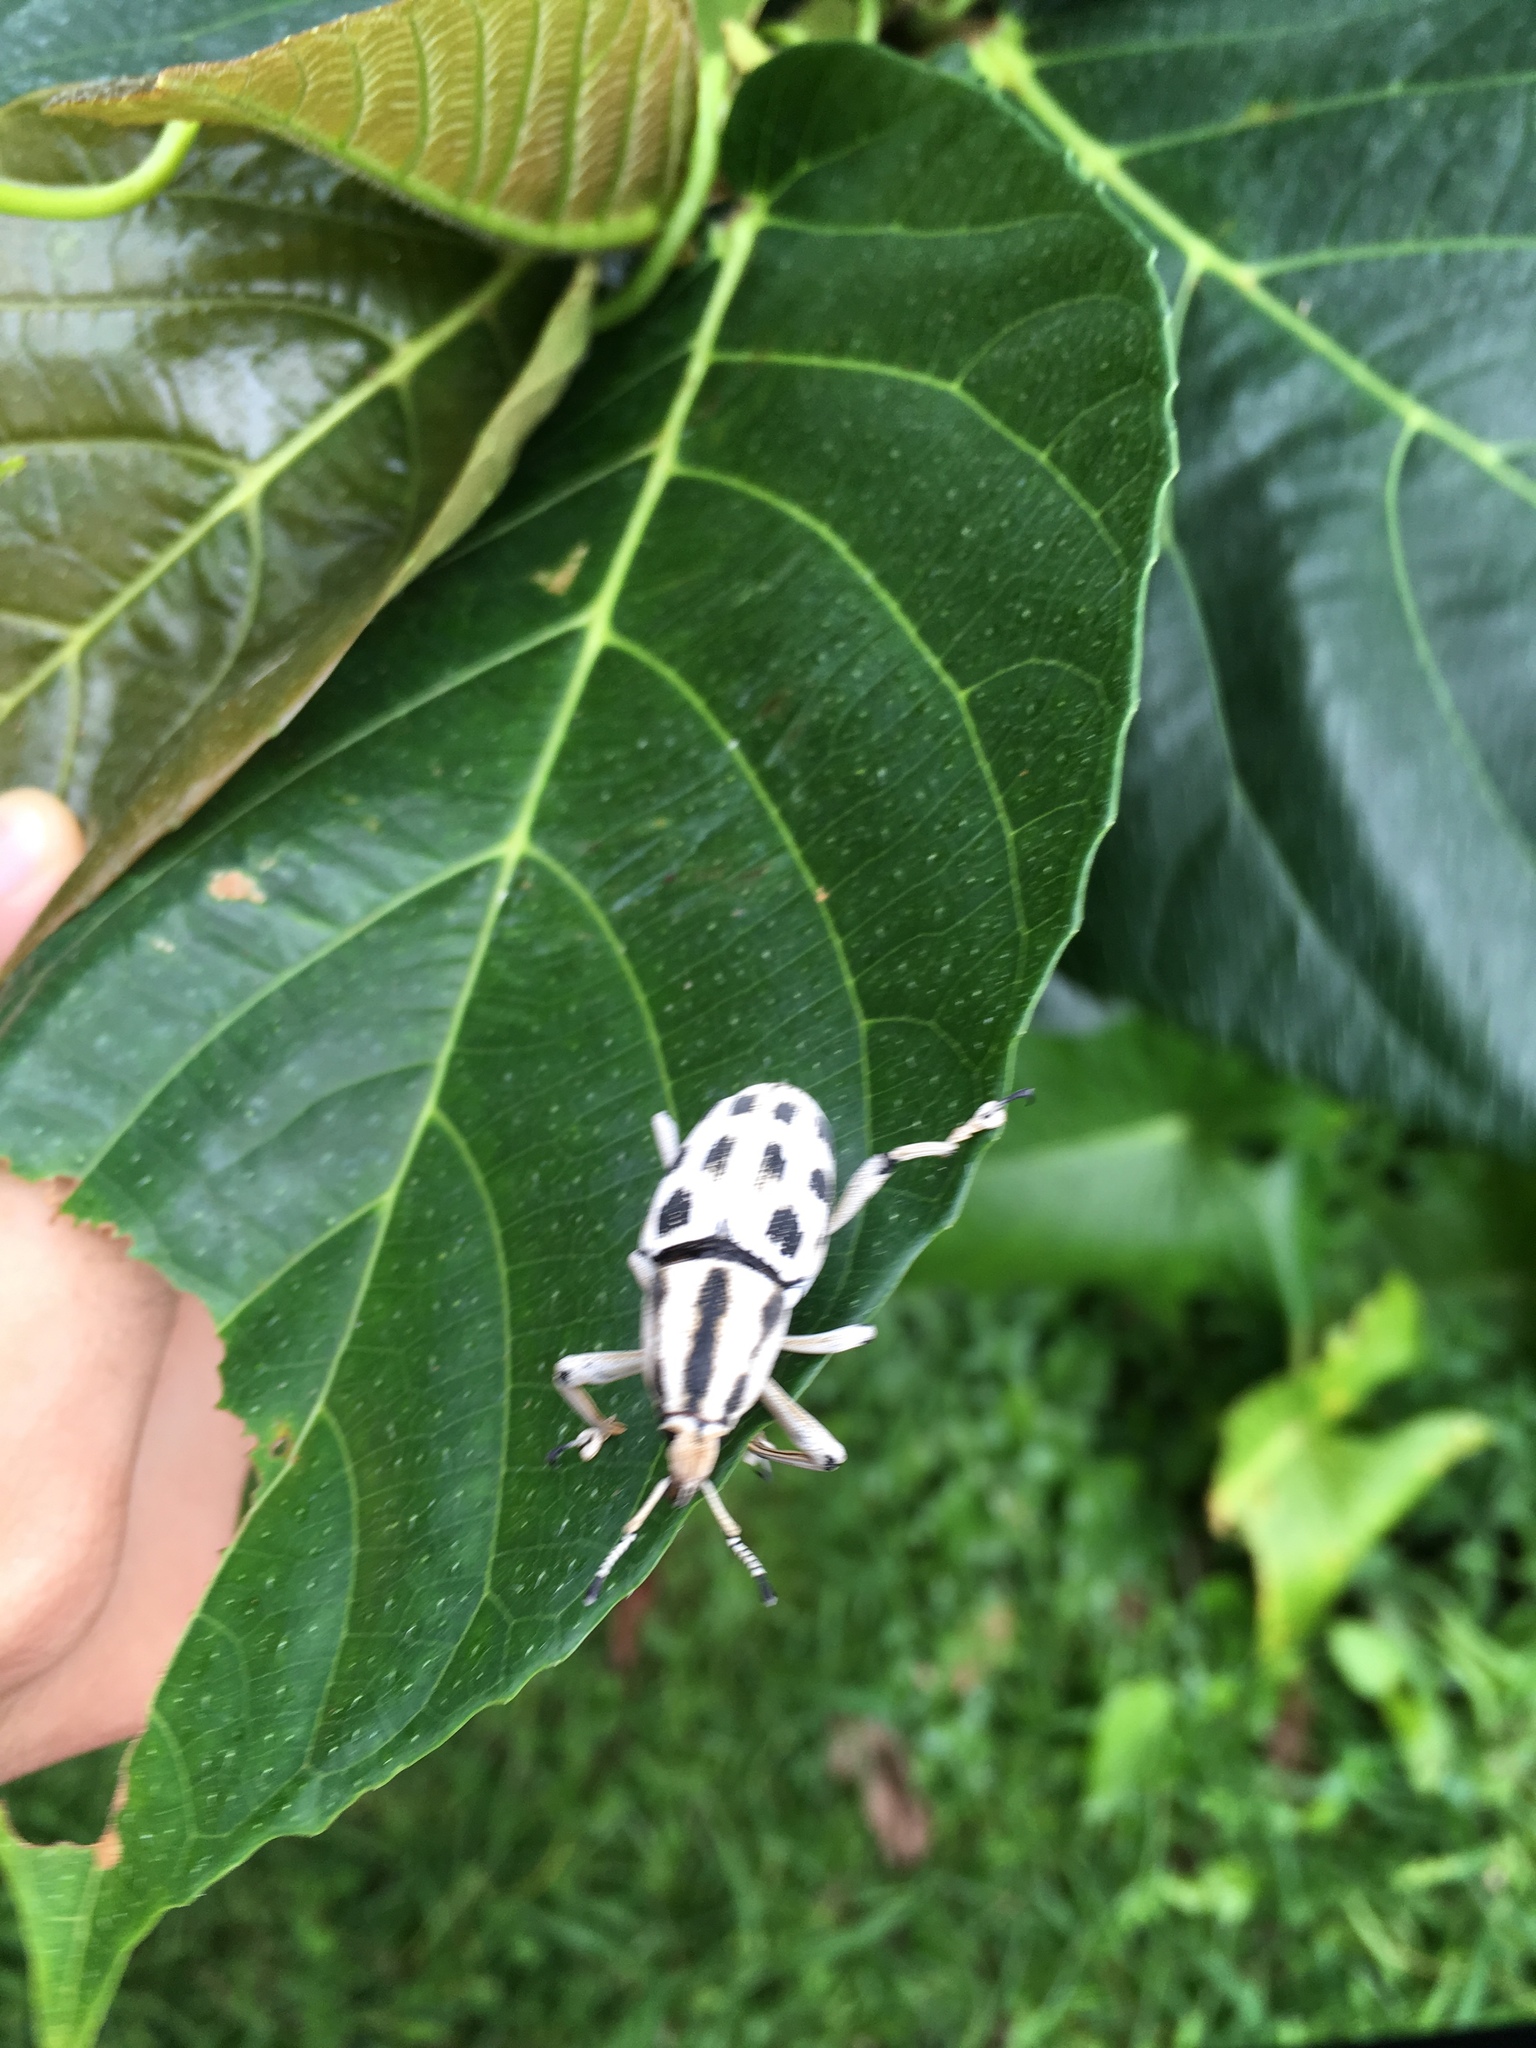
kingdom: Animalia
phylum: Arthropoda
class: Insecta
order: Coleoptera
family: Dryophthoridae
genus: Poteriophorus
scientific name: Poteriophorus uhlemanni
